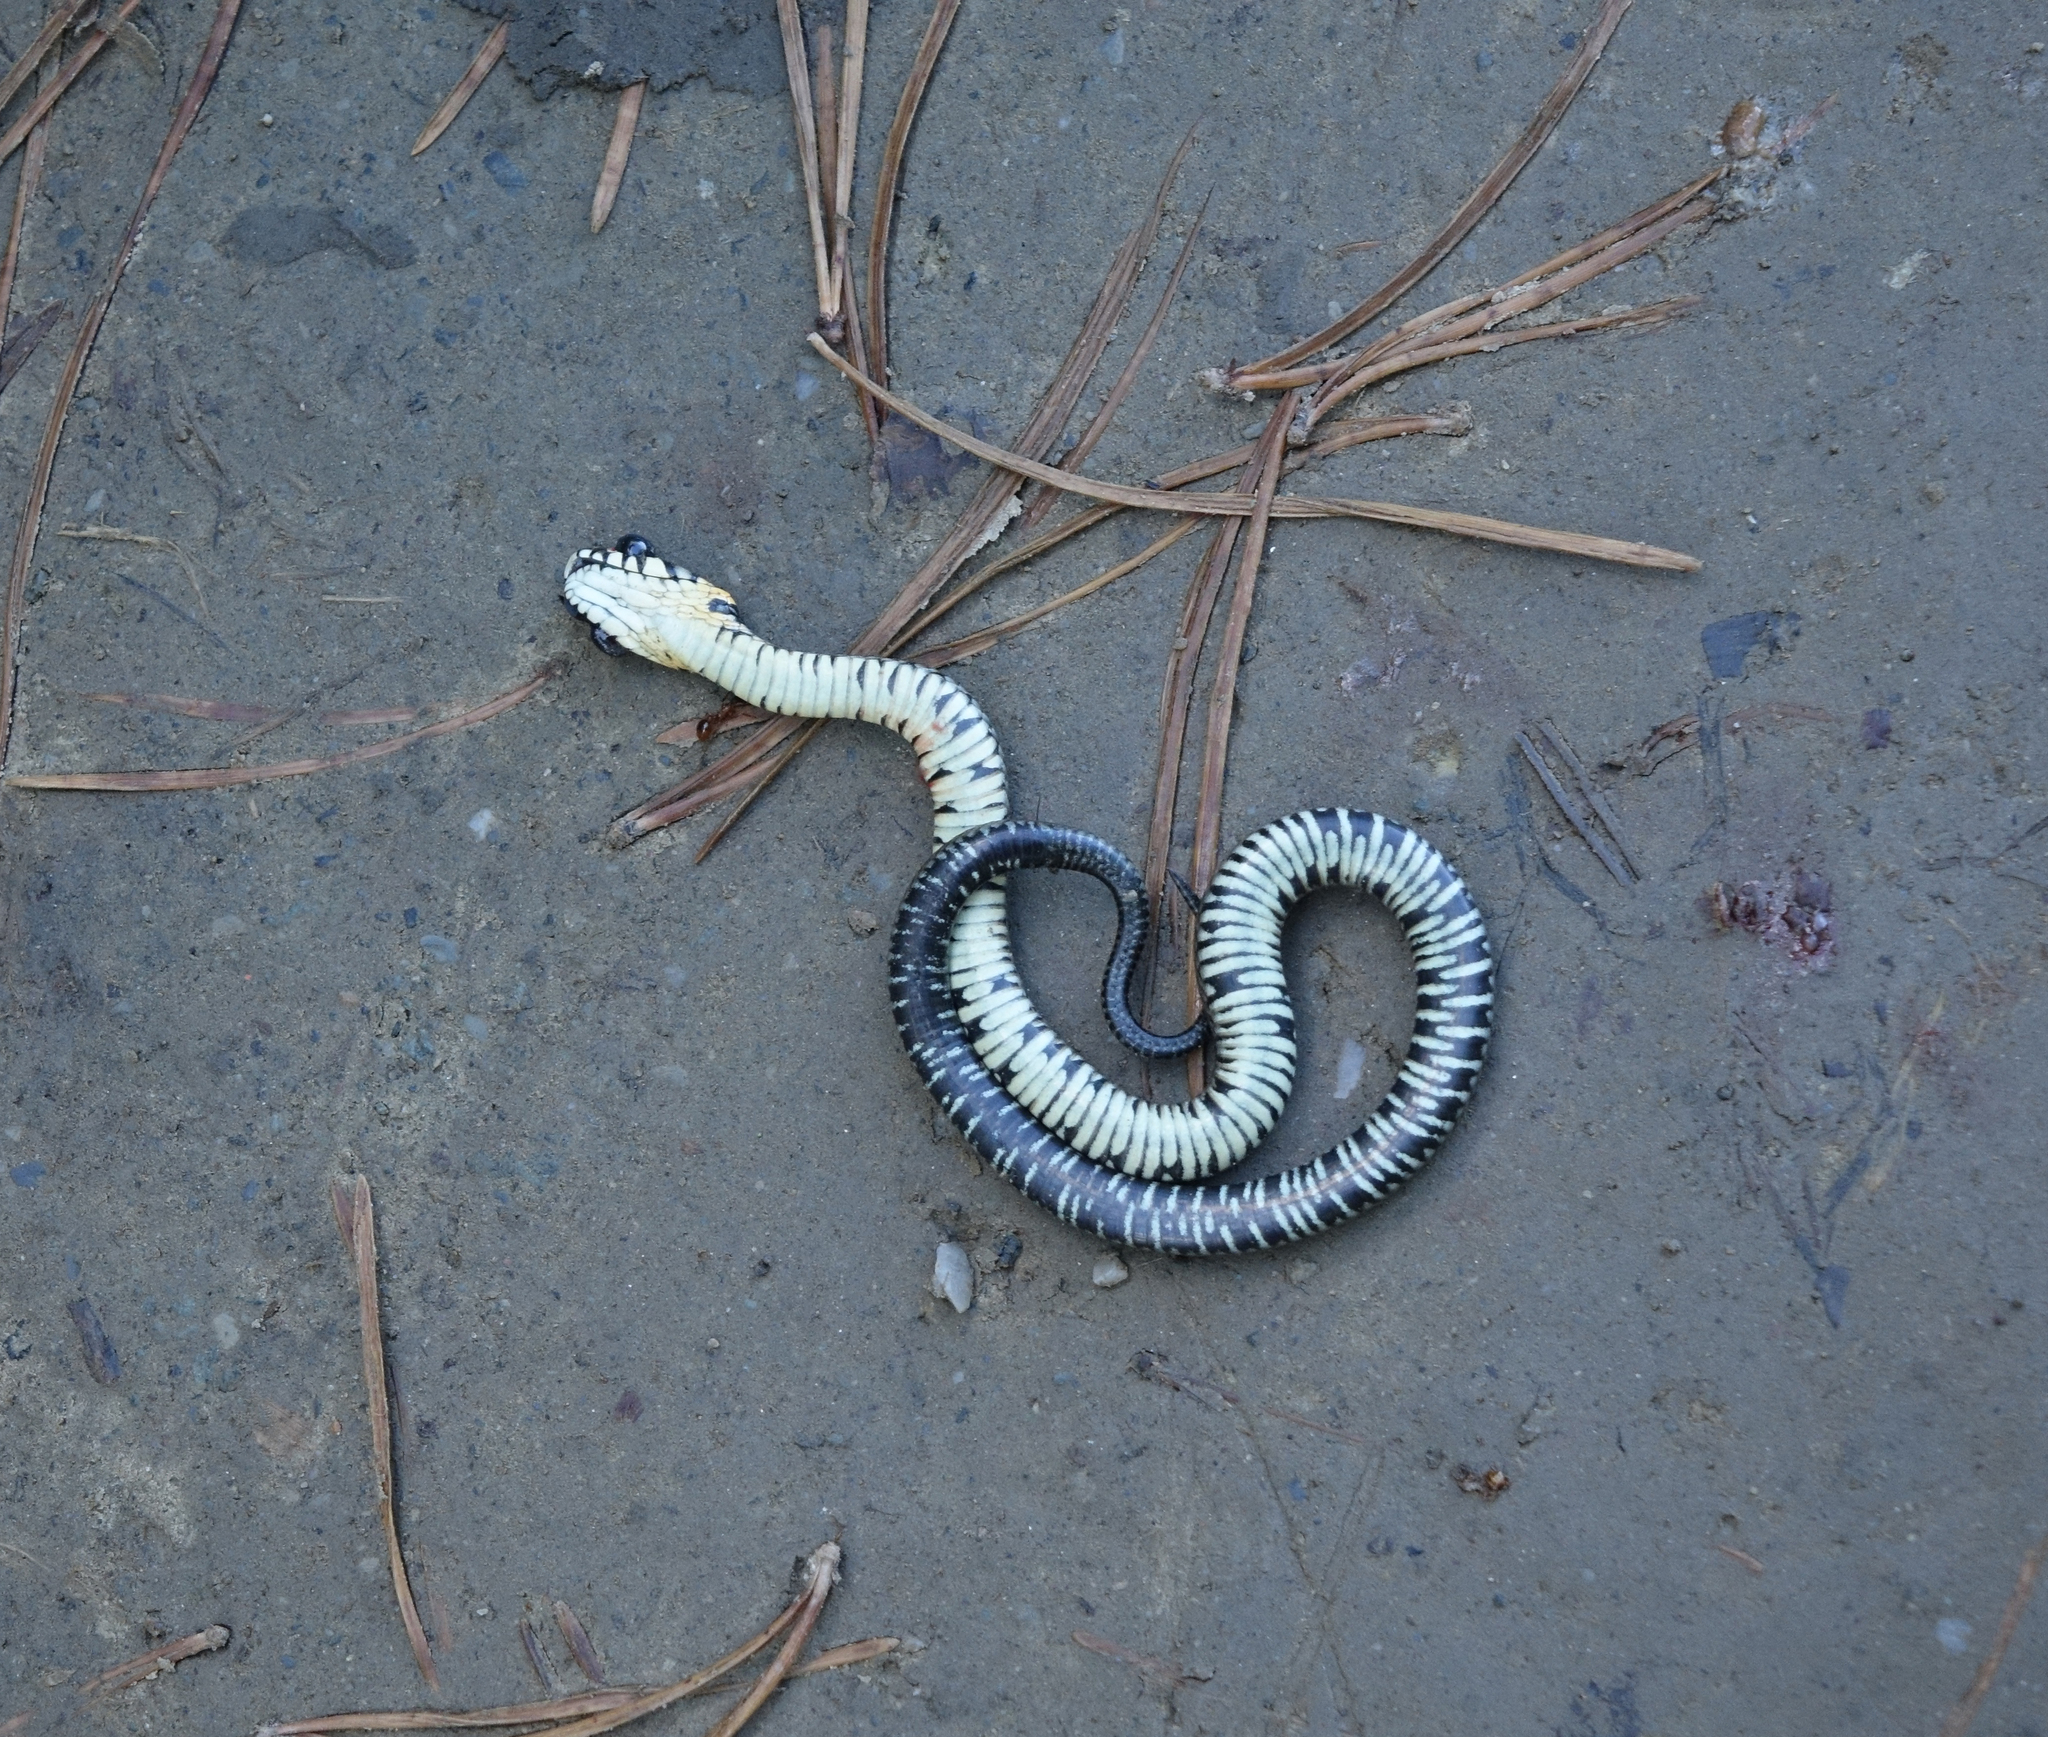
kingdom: Animalia
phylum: Chordata
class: Squamata
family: Colubridae
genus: Natrix
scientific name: Natrix natrix
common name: Grass snake
